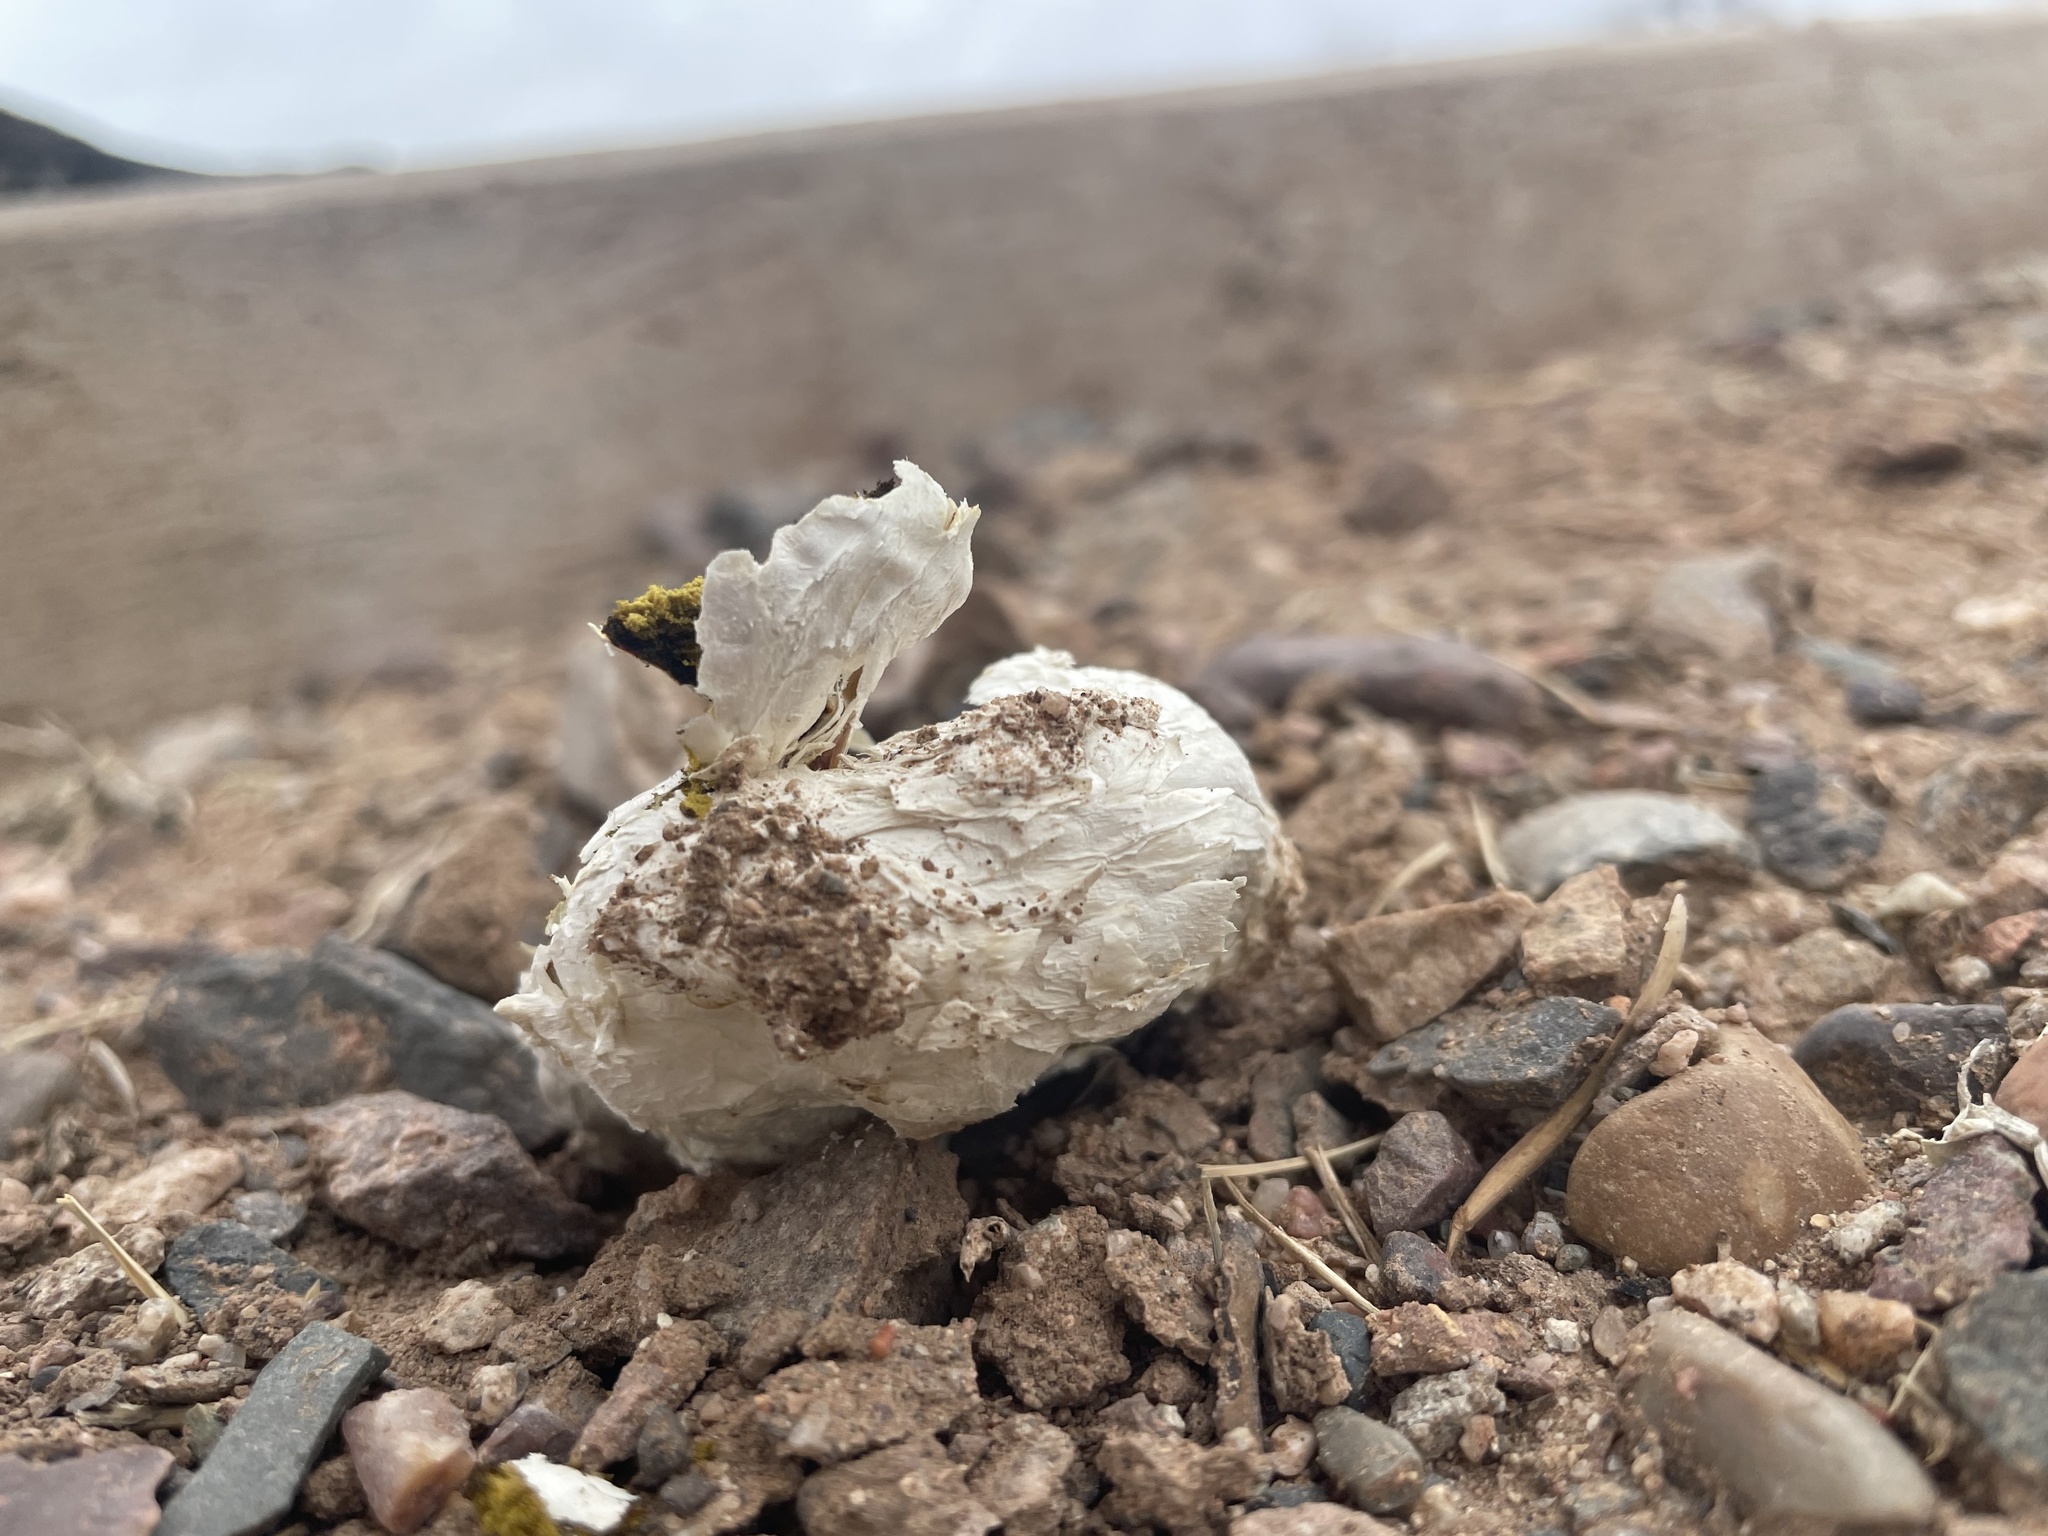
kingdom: Fungi
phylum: Basidiomycota
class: Agaricomycetes
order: Agaricales
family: Agaricaceae
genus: Podaxis
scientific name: Podaxis pistillaris
